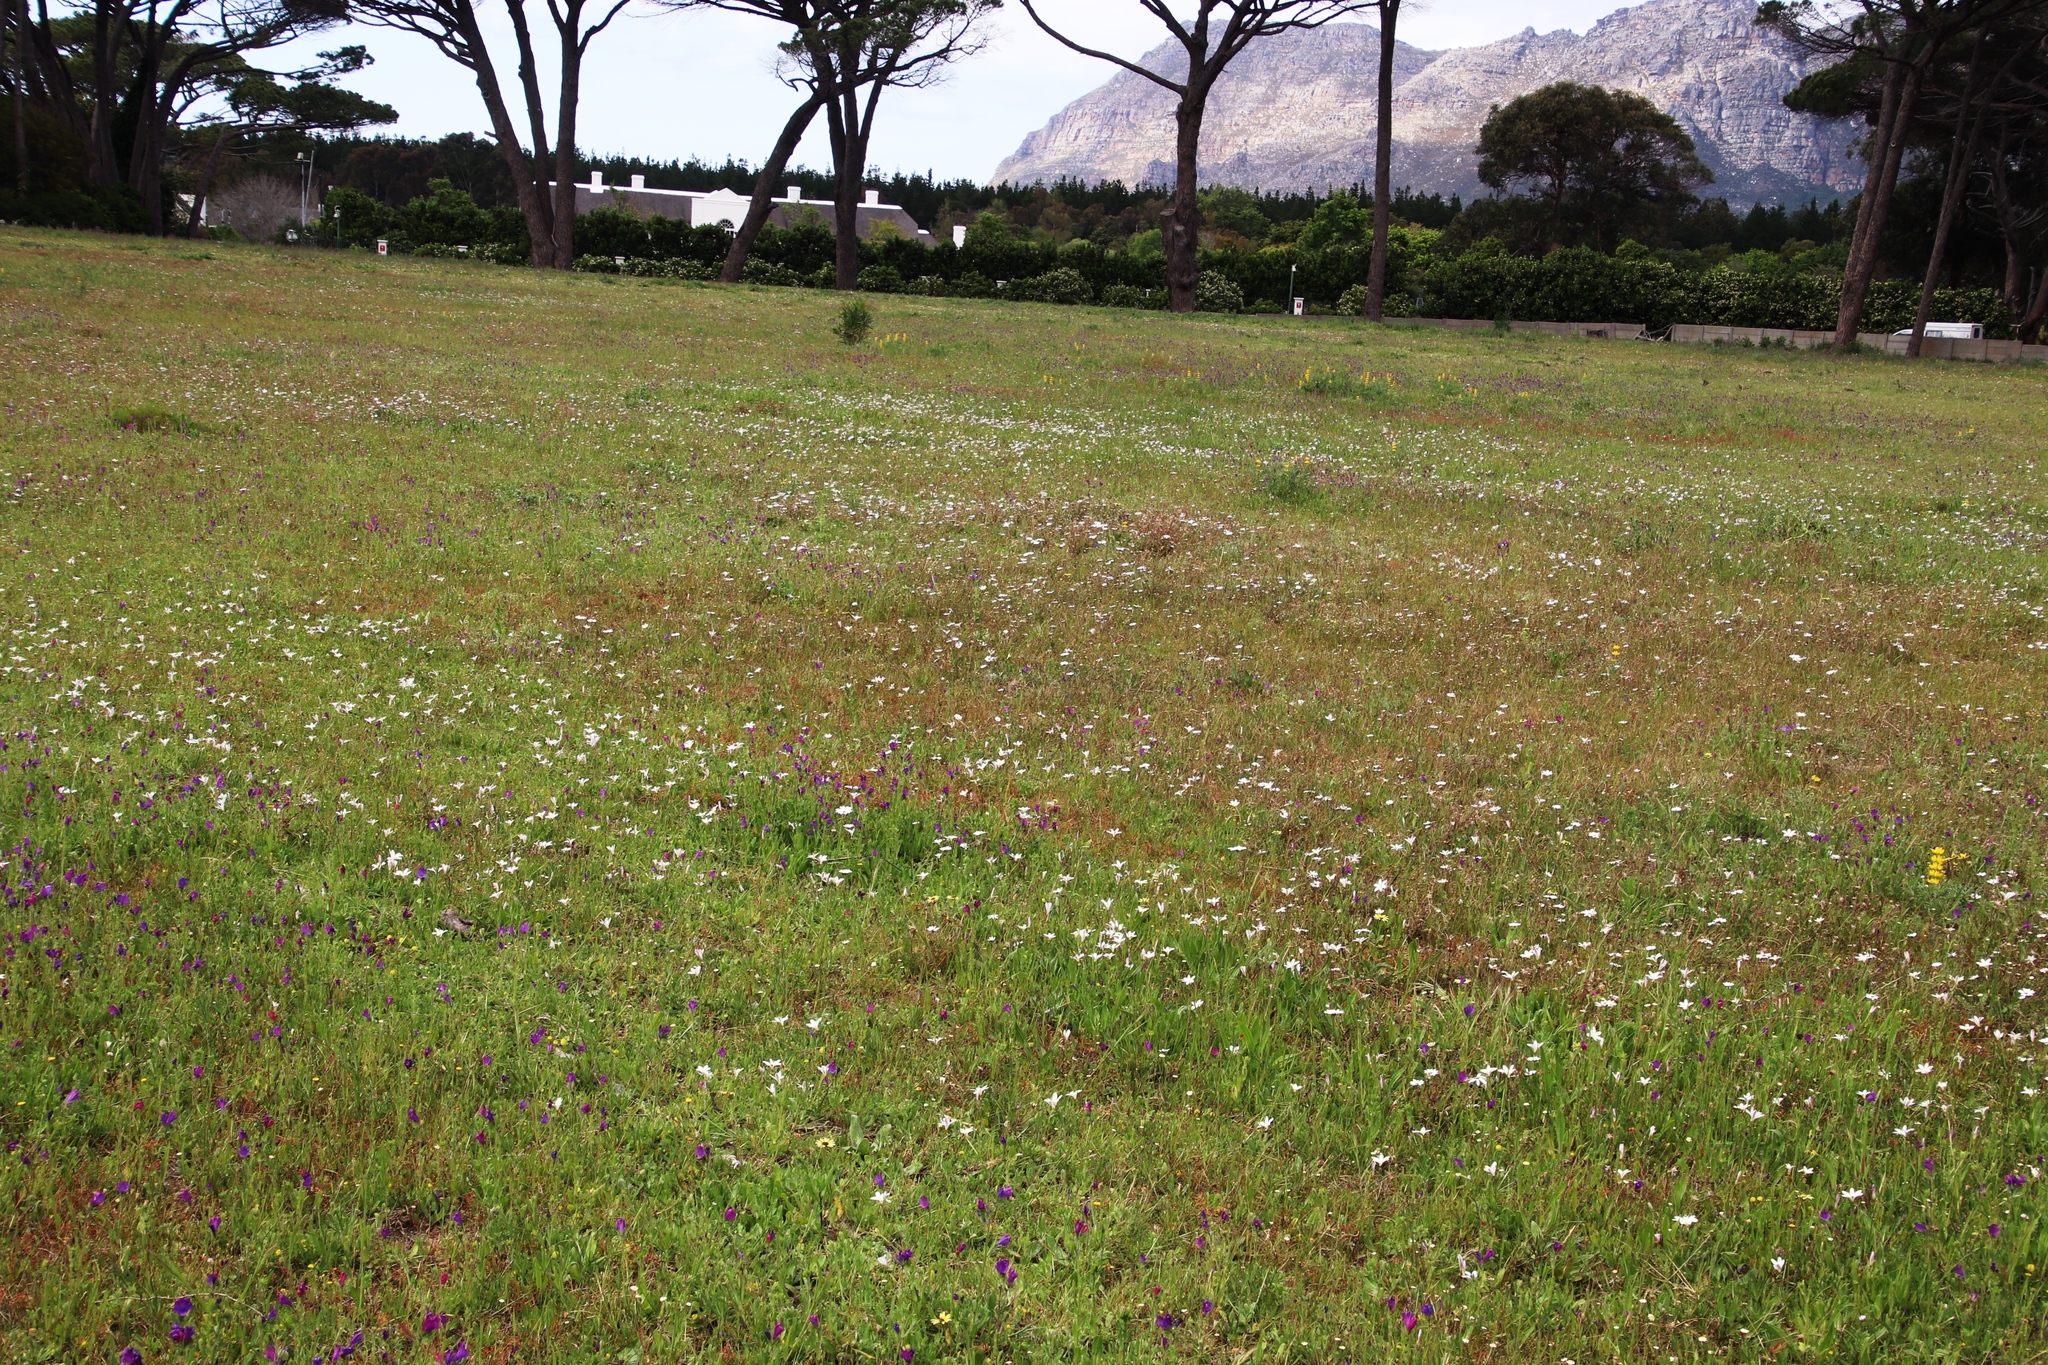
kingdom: Plantae
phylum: Tracheophyta
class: Liliopsida
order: Asparagales
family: Iridaceae
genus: Sparaxis
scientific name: Sparaxis bulbifera
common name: Harlequin-flower
